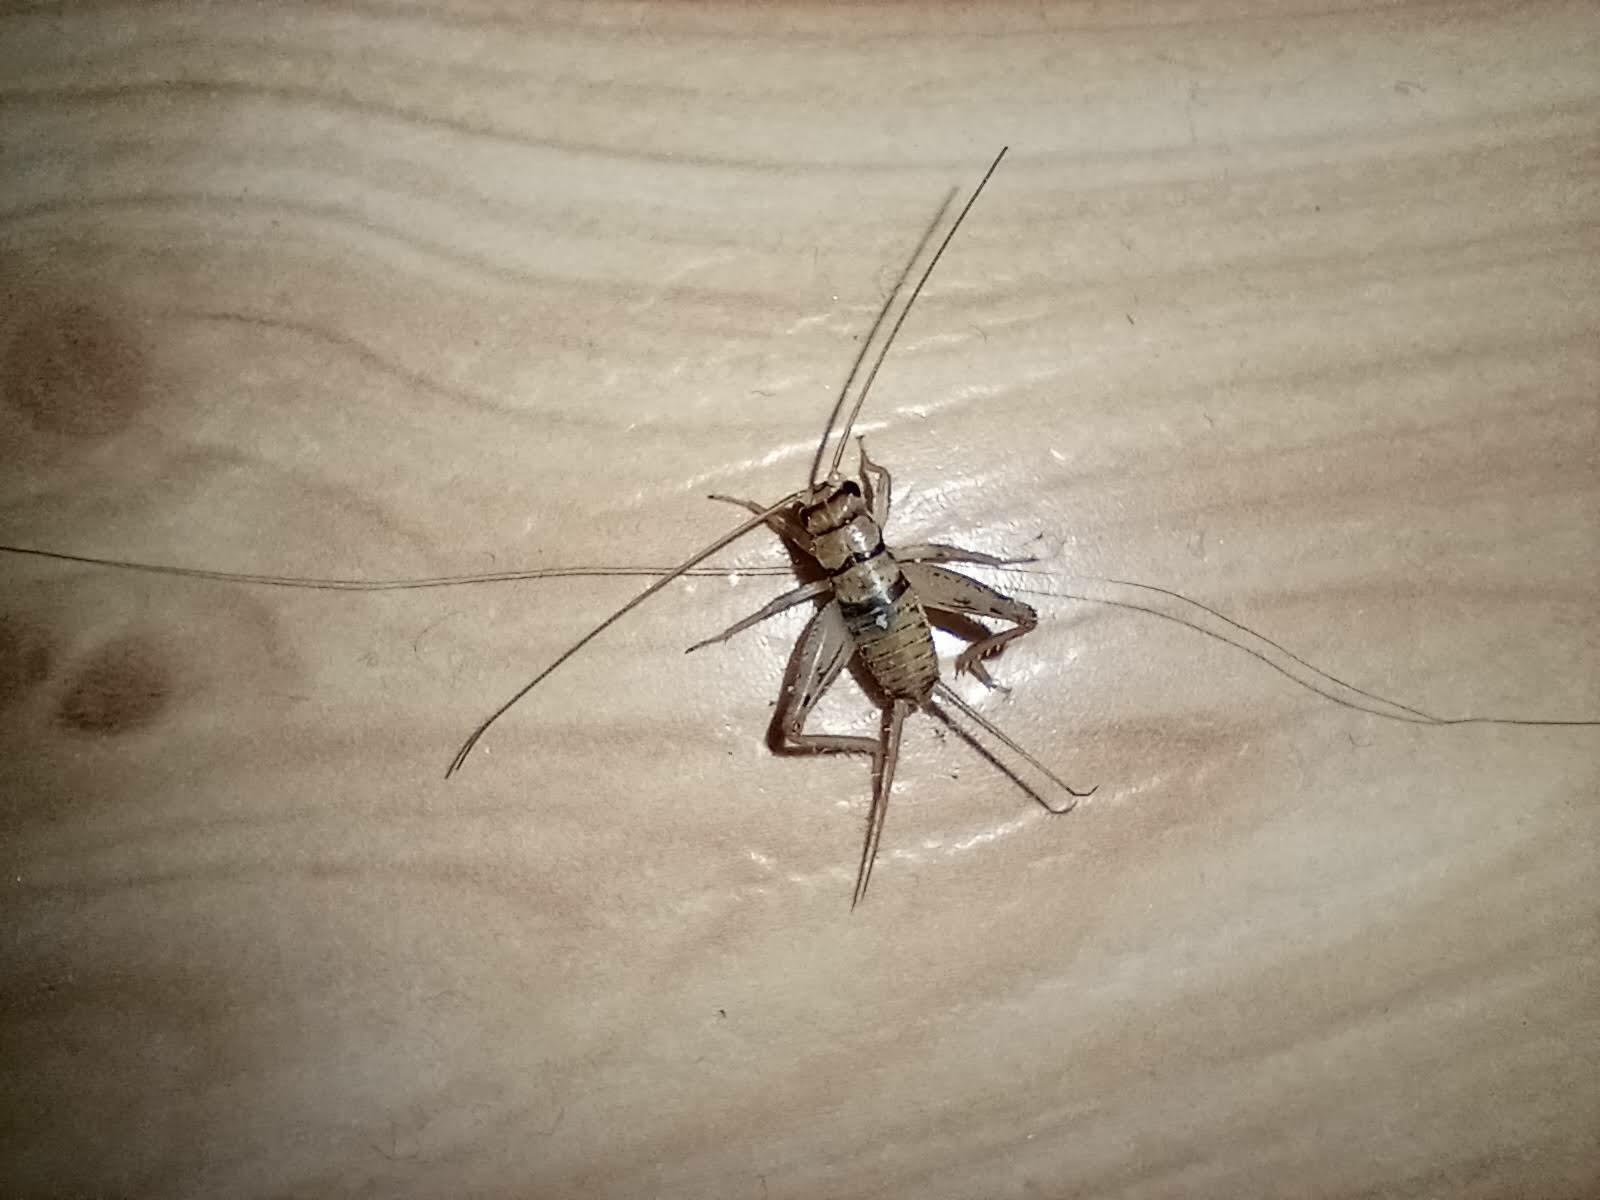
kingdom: Animalia
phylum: Arthropoda
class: Insecta
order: Orthoptera
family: Gryllidae
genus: Gryllodes
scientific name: Gryllodes sigillatus
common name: Tropical house cricket
